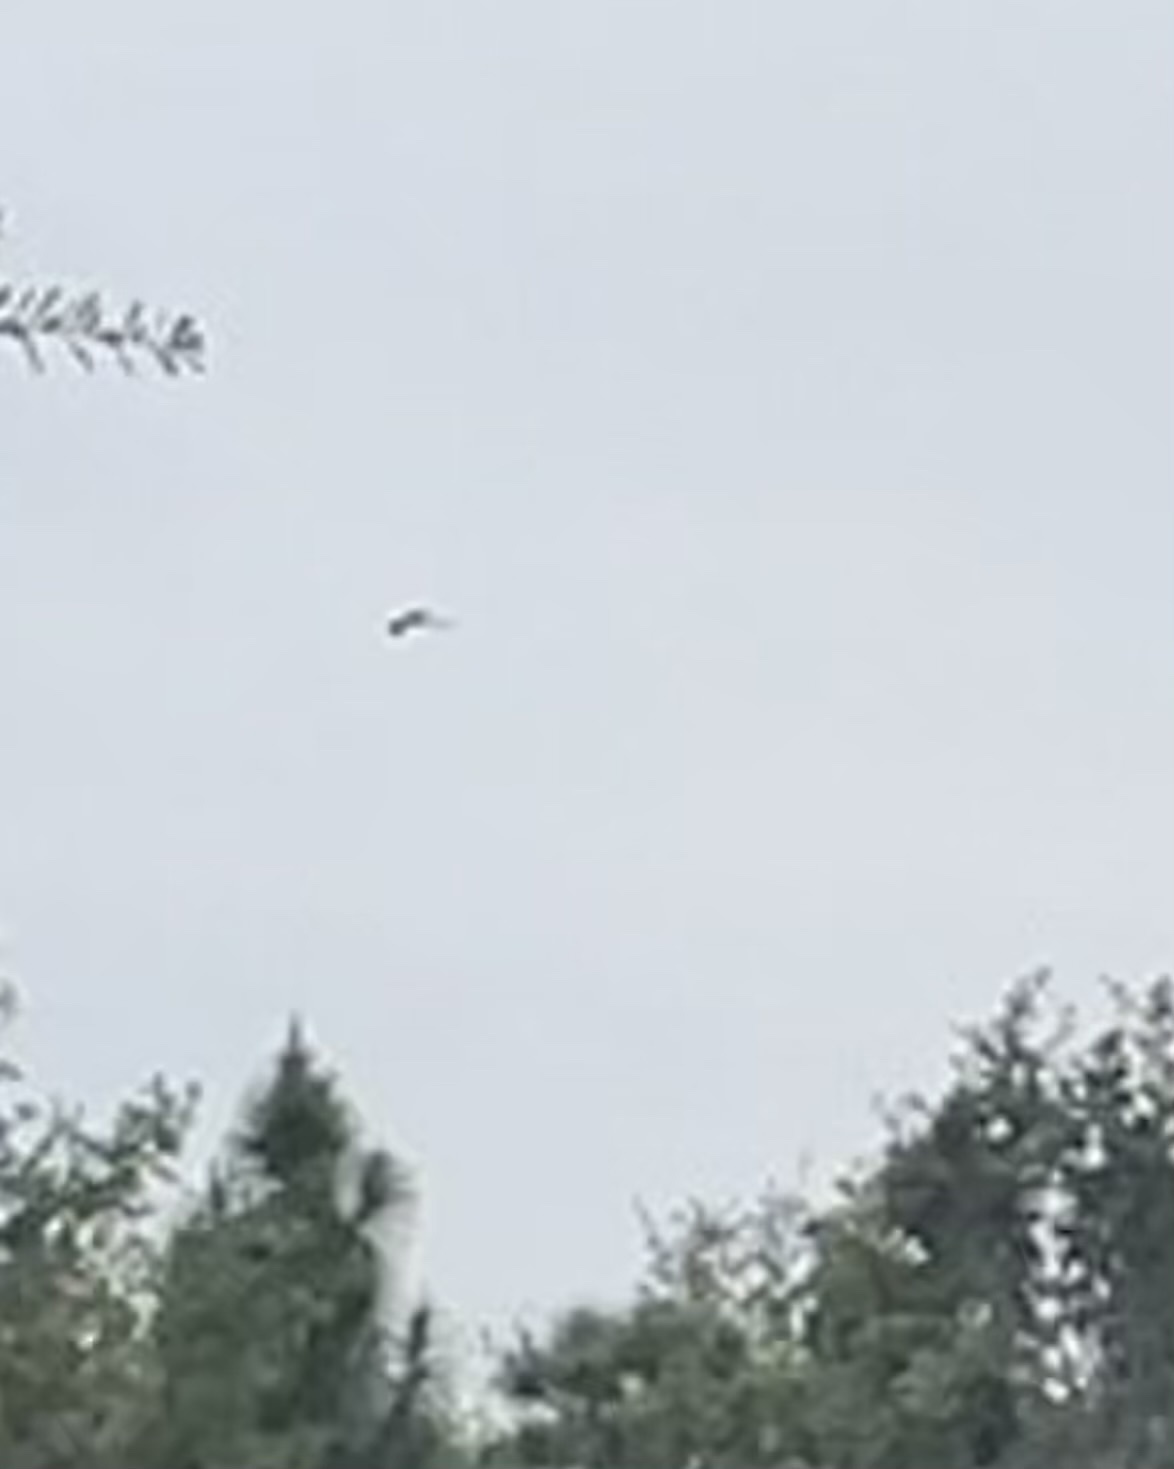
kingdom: Animalia
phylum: Chordata
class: Aves
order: Accipitriformes
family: Accipitridae
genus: Elanoides
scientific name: Elanoides forficatus
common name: Swallow-tailed kite
